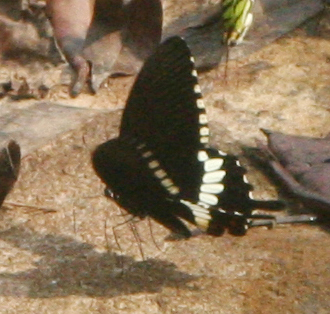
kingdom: Animalia
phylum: Arthropoda
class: Insecta
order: Lepidoptera
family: Papilionidae
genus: Papilio
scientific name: Papilio polytes
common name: Common mormon
